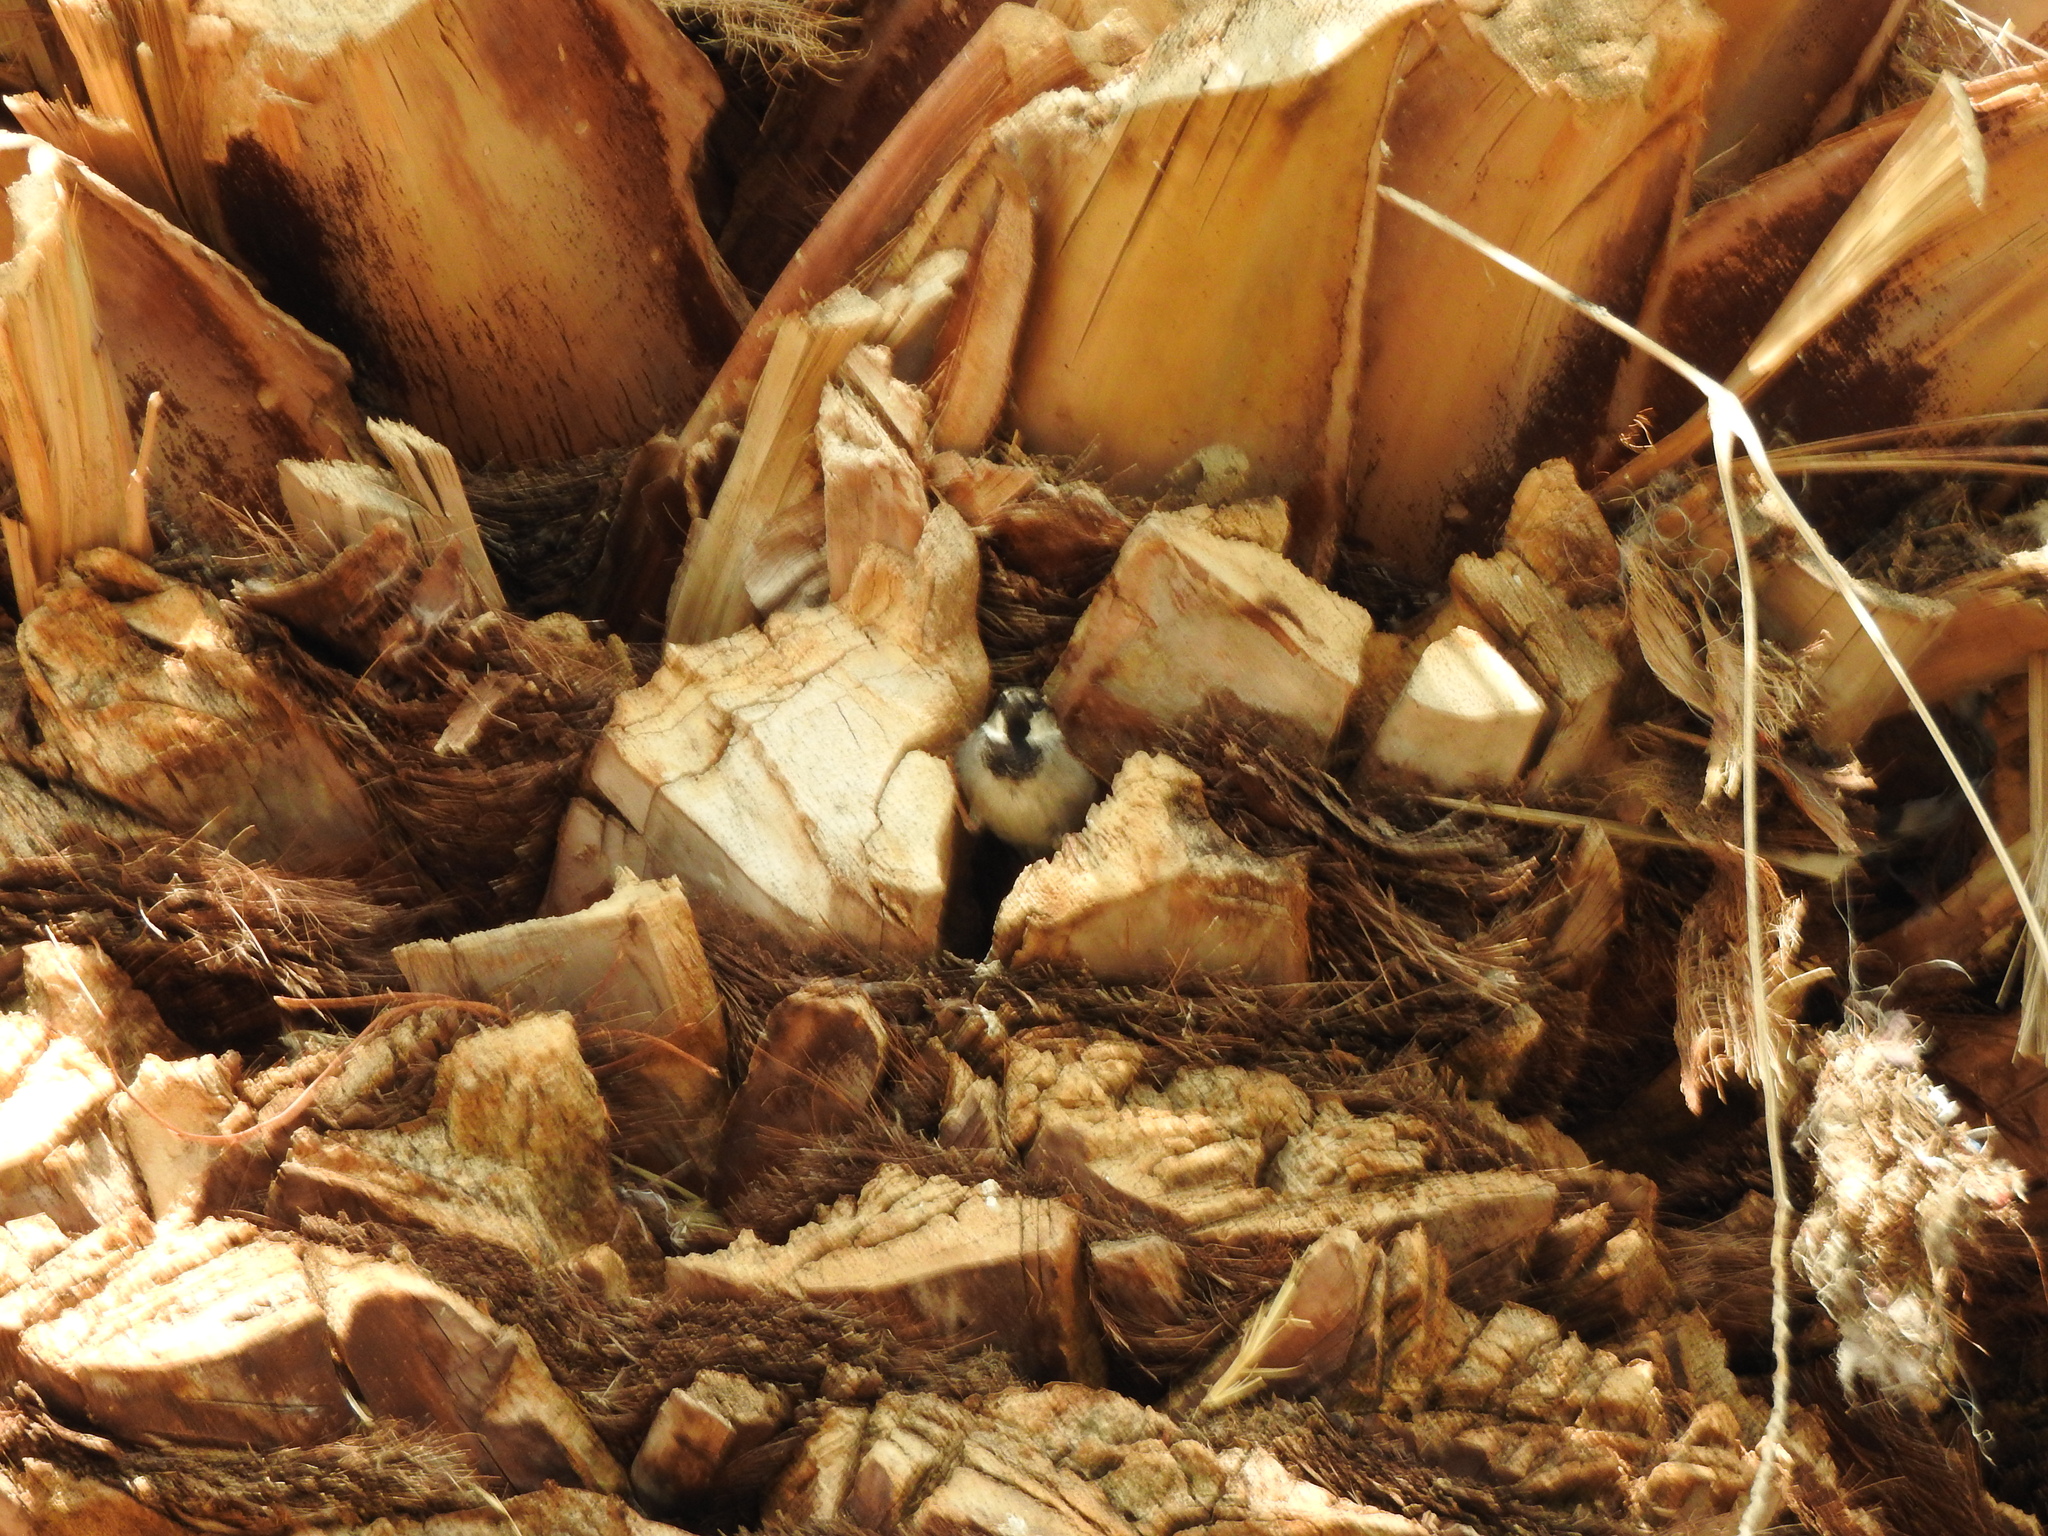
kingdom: Animalia
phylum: Chordata
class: Aves
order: Passeriformes
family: Passeridae
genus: Passer
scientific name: Passer domesticus
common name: House sparrow
